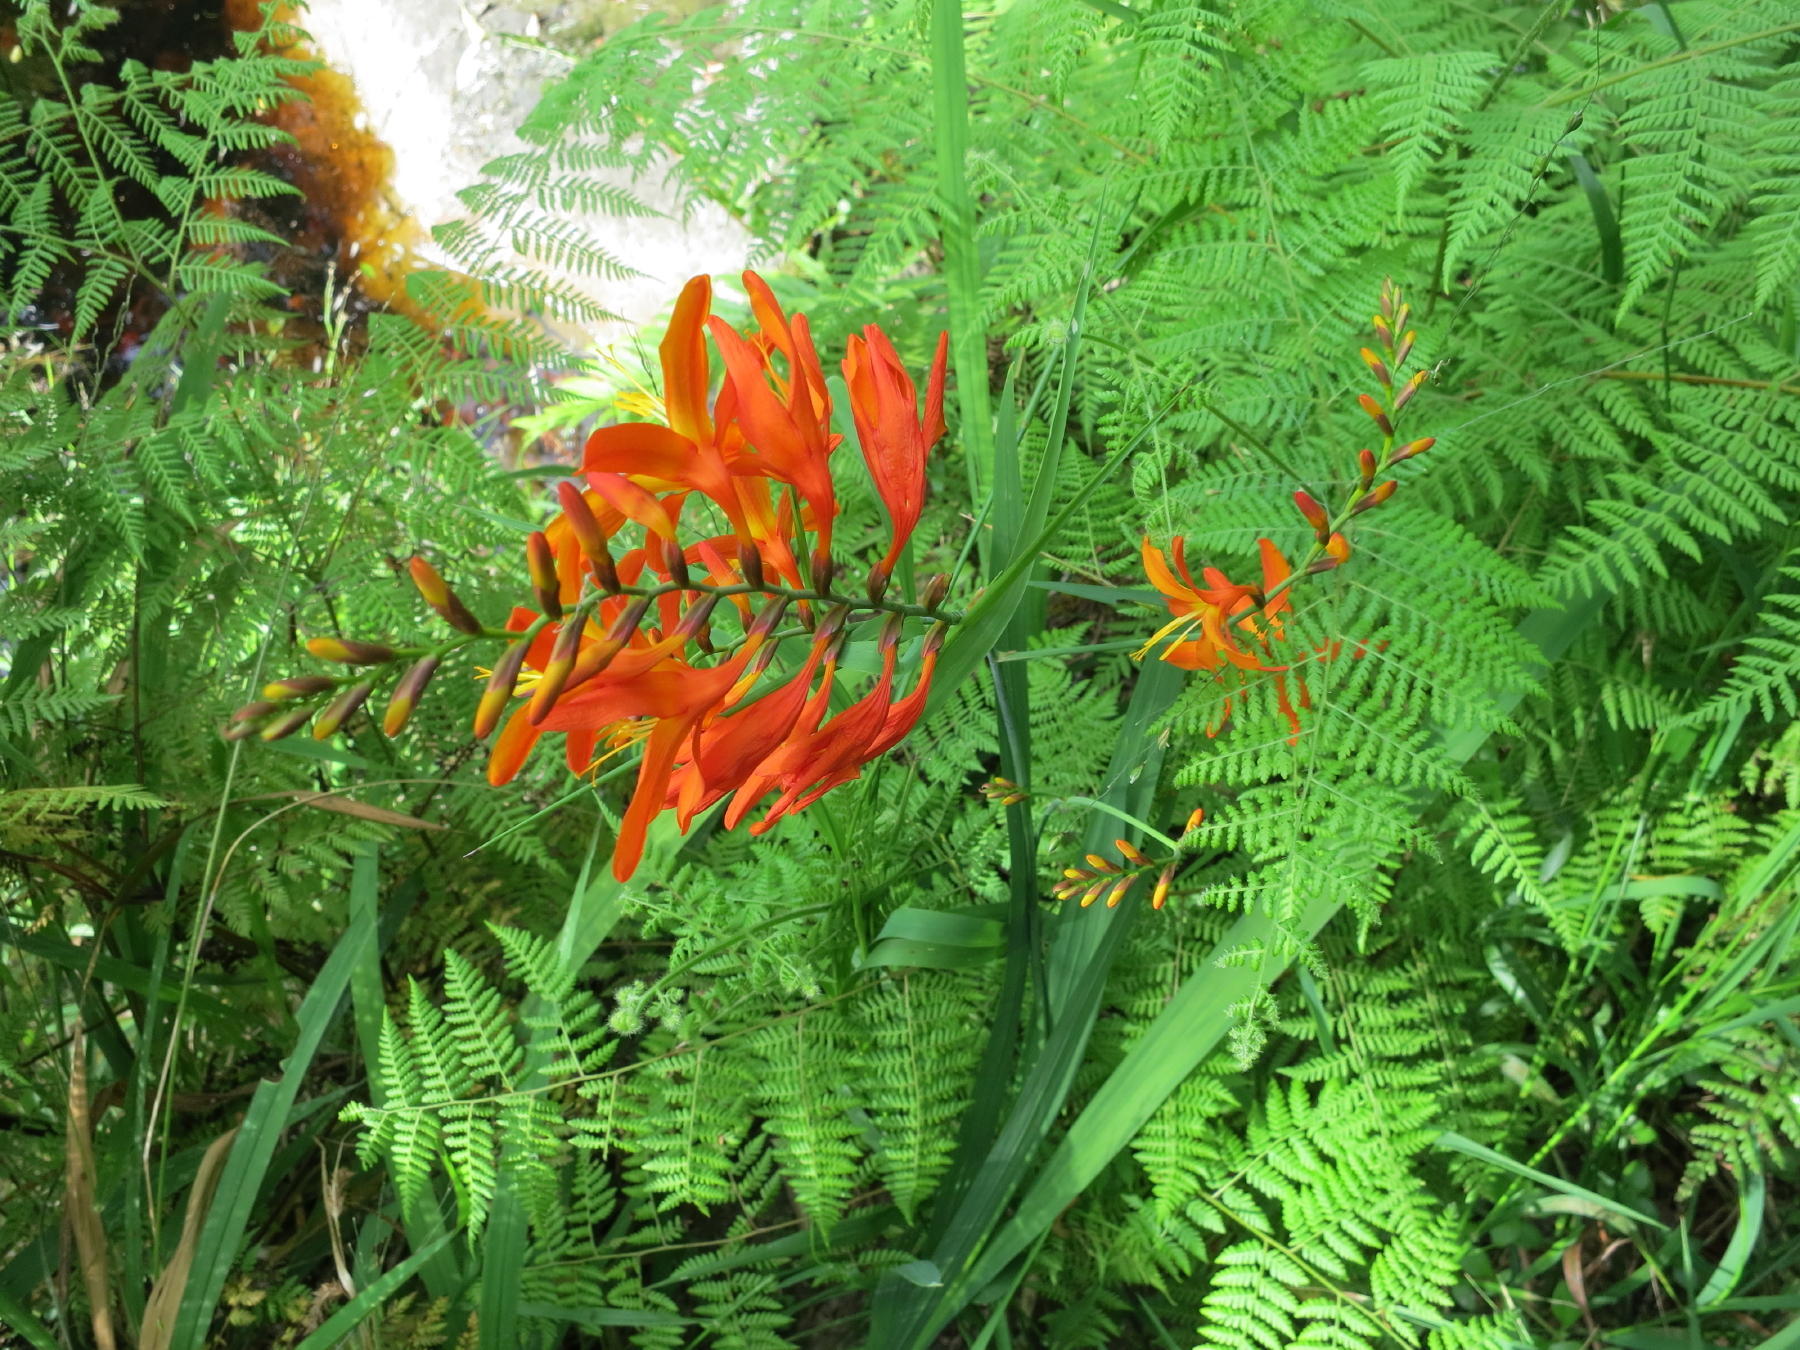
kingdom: Plantae
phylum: Tracheophyta
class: Liliopsida
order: Asparagales
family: Iridaceae
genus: Crocosmia
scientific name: Crocosmia crocosmiiflora
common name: Montbretia
